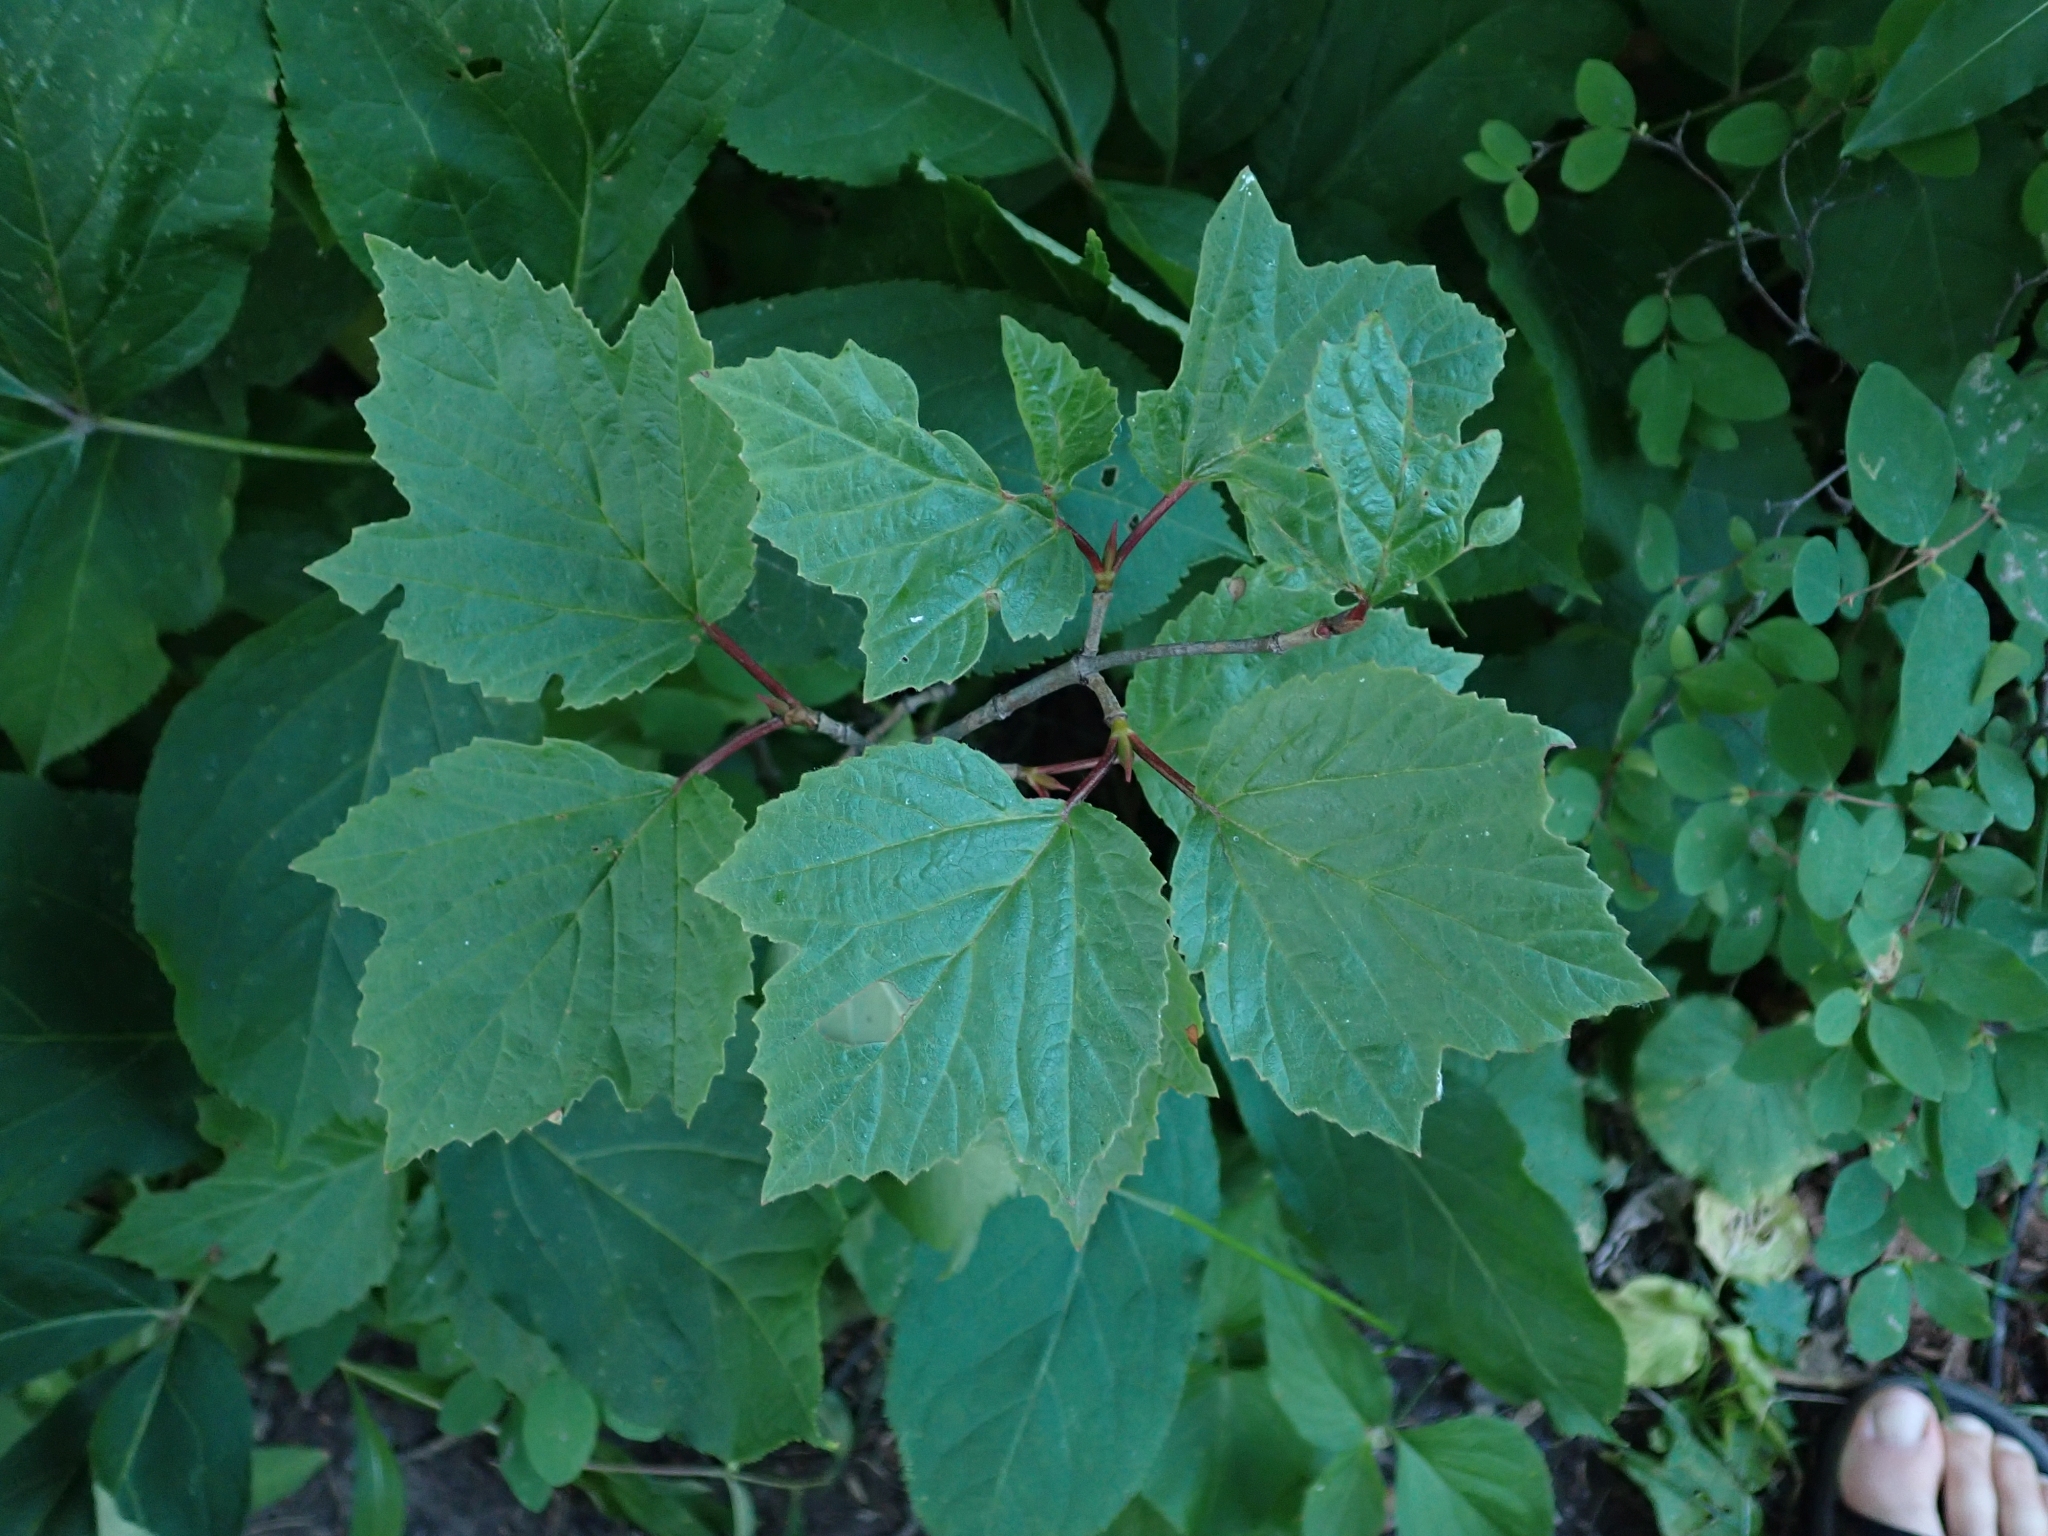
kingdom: Plantae
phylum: Tracheophyta
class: Magnoliopsida
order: Dipsacales
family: Viburnaceae
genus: Viburnum
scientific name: Viburnum edule
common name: Mooseberry
